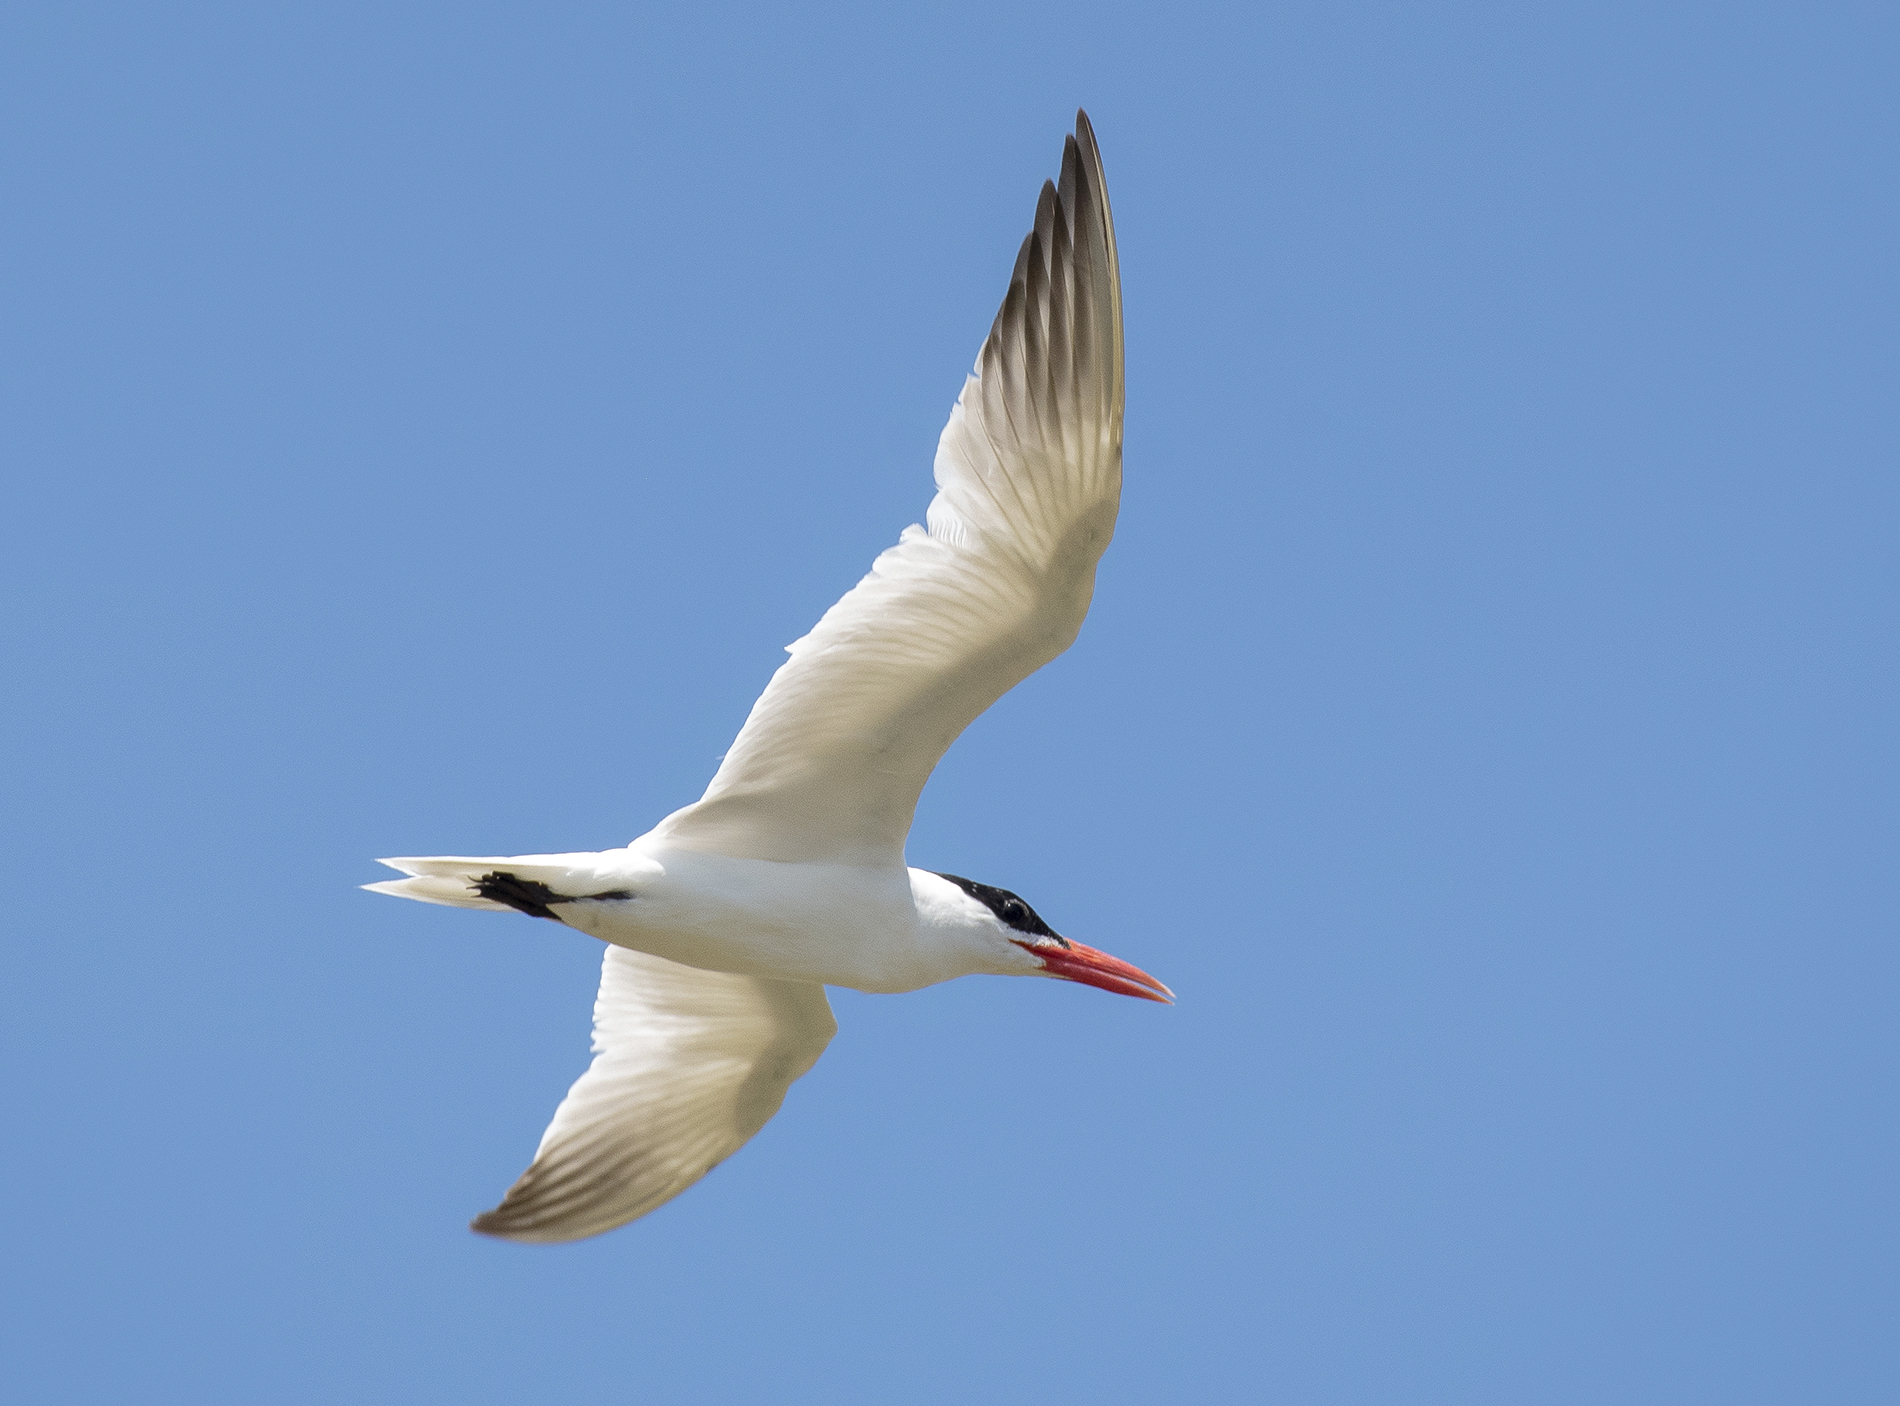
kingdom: Animalia
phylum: Chordata
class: Aves
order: Charadriiformes
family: Laridae
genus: Hydroprogne
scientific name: Hydroprogne caspia
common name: Caspian tern
